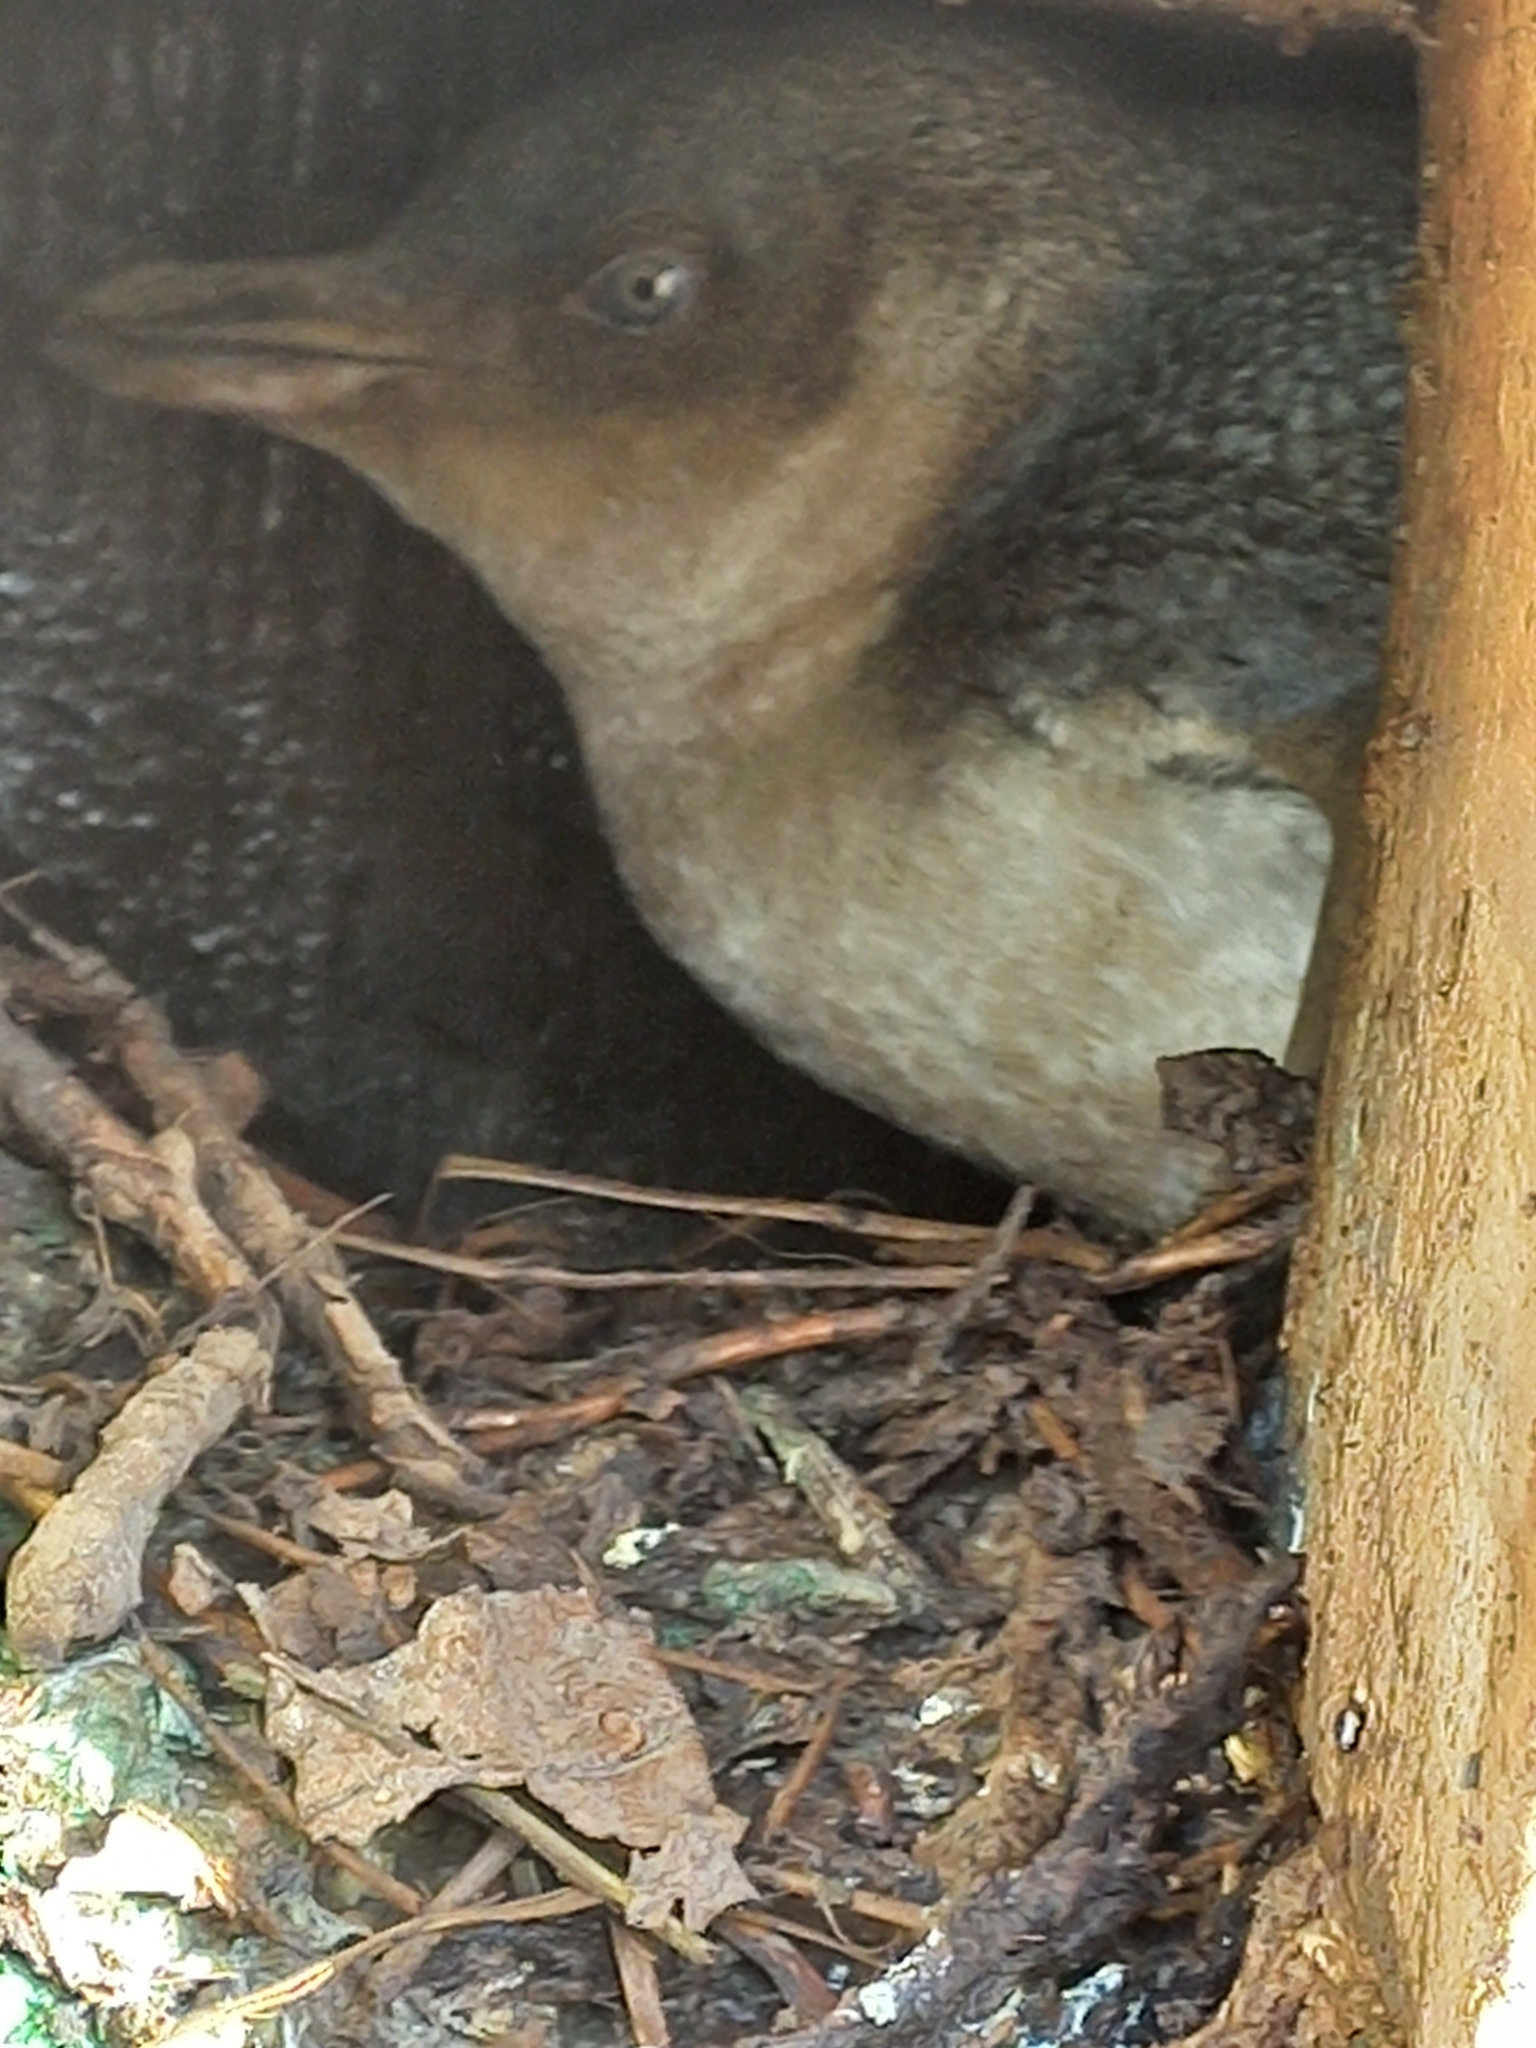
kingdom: Animalia
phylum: Chordata
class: Aves
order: Sphenisciformes
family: Spheniscidae
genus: Eudyptula
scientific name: Eudyptula minor
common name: Little penguin
